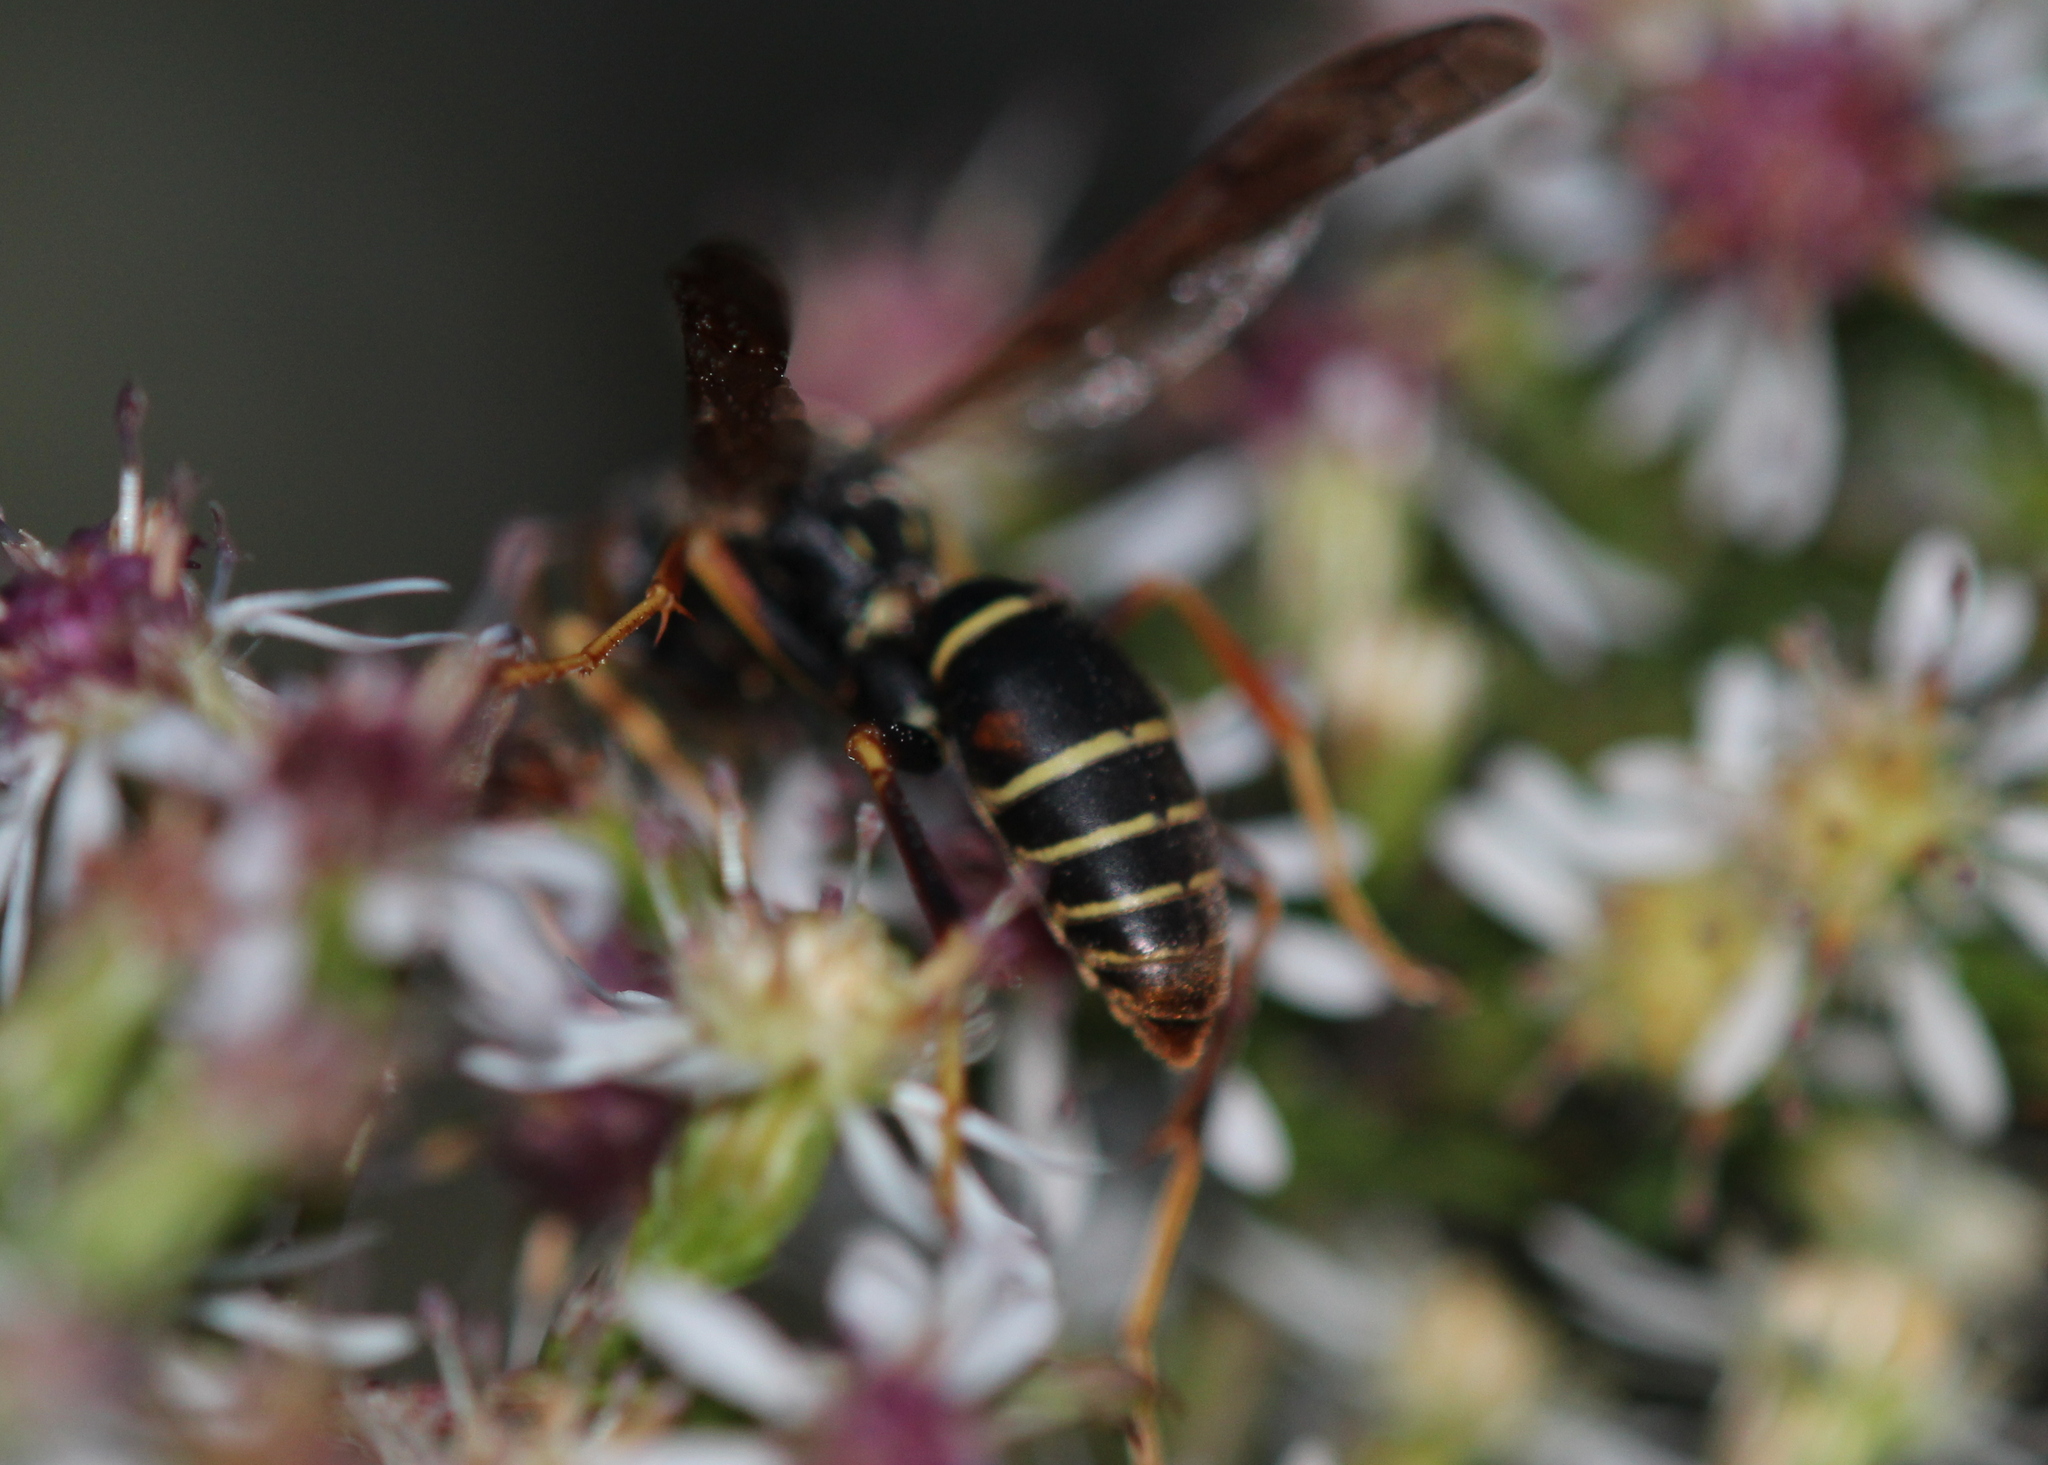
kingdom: Animalia
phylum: Arthropoda
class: Insecta
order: Hymenoptera
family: Eumenidae
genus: Polistes
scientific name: Polistes fuscatus
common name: Dark paper wasp
